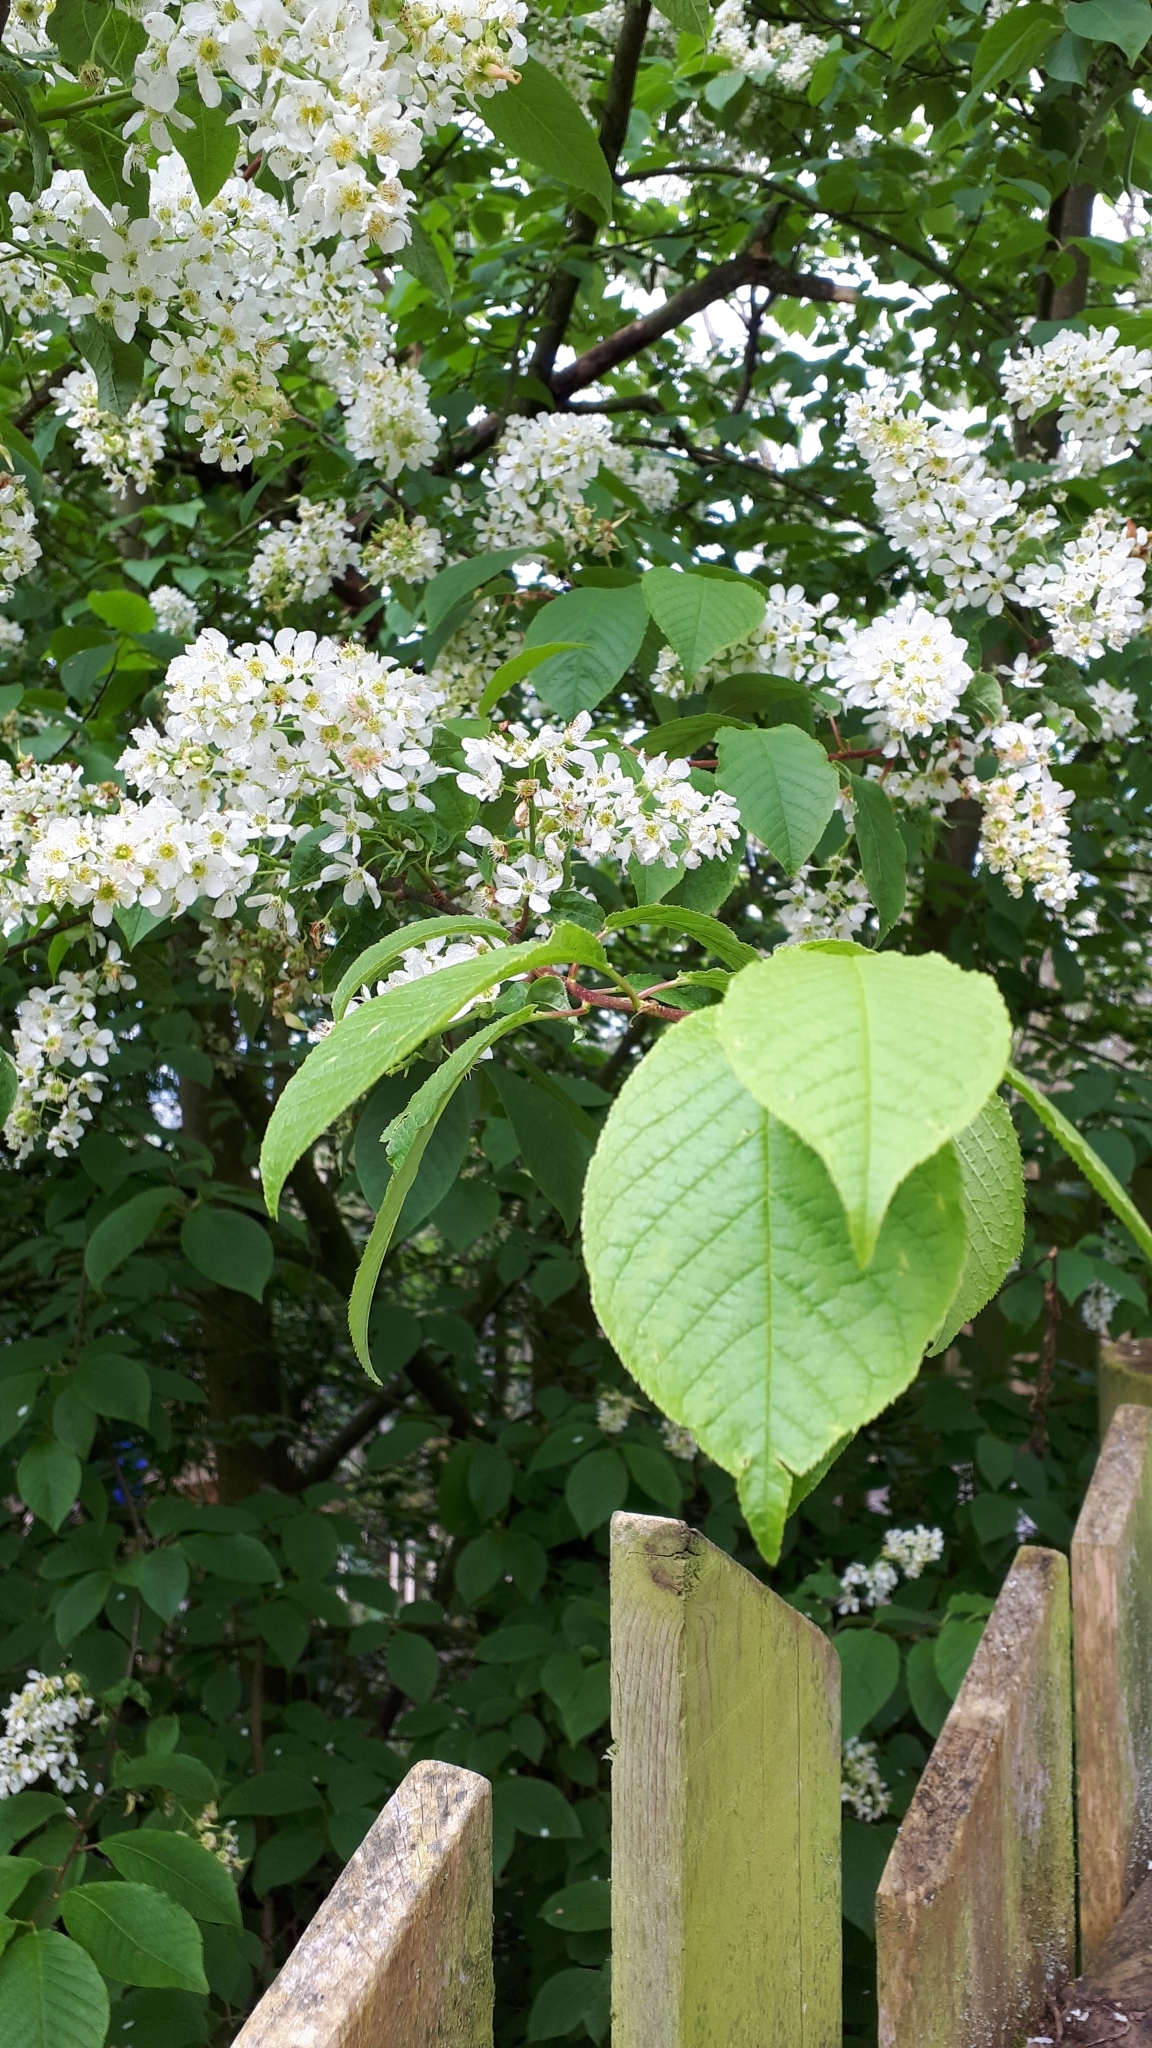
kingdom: Plantae
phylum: Tracheophyta
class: Magnoliopsida
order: Rosales
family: Rosaceae
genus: Prunus
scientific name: Prunus padus
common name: Bird cherry
